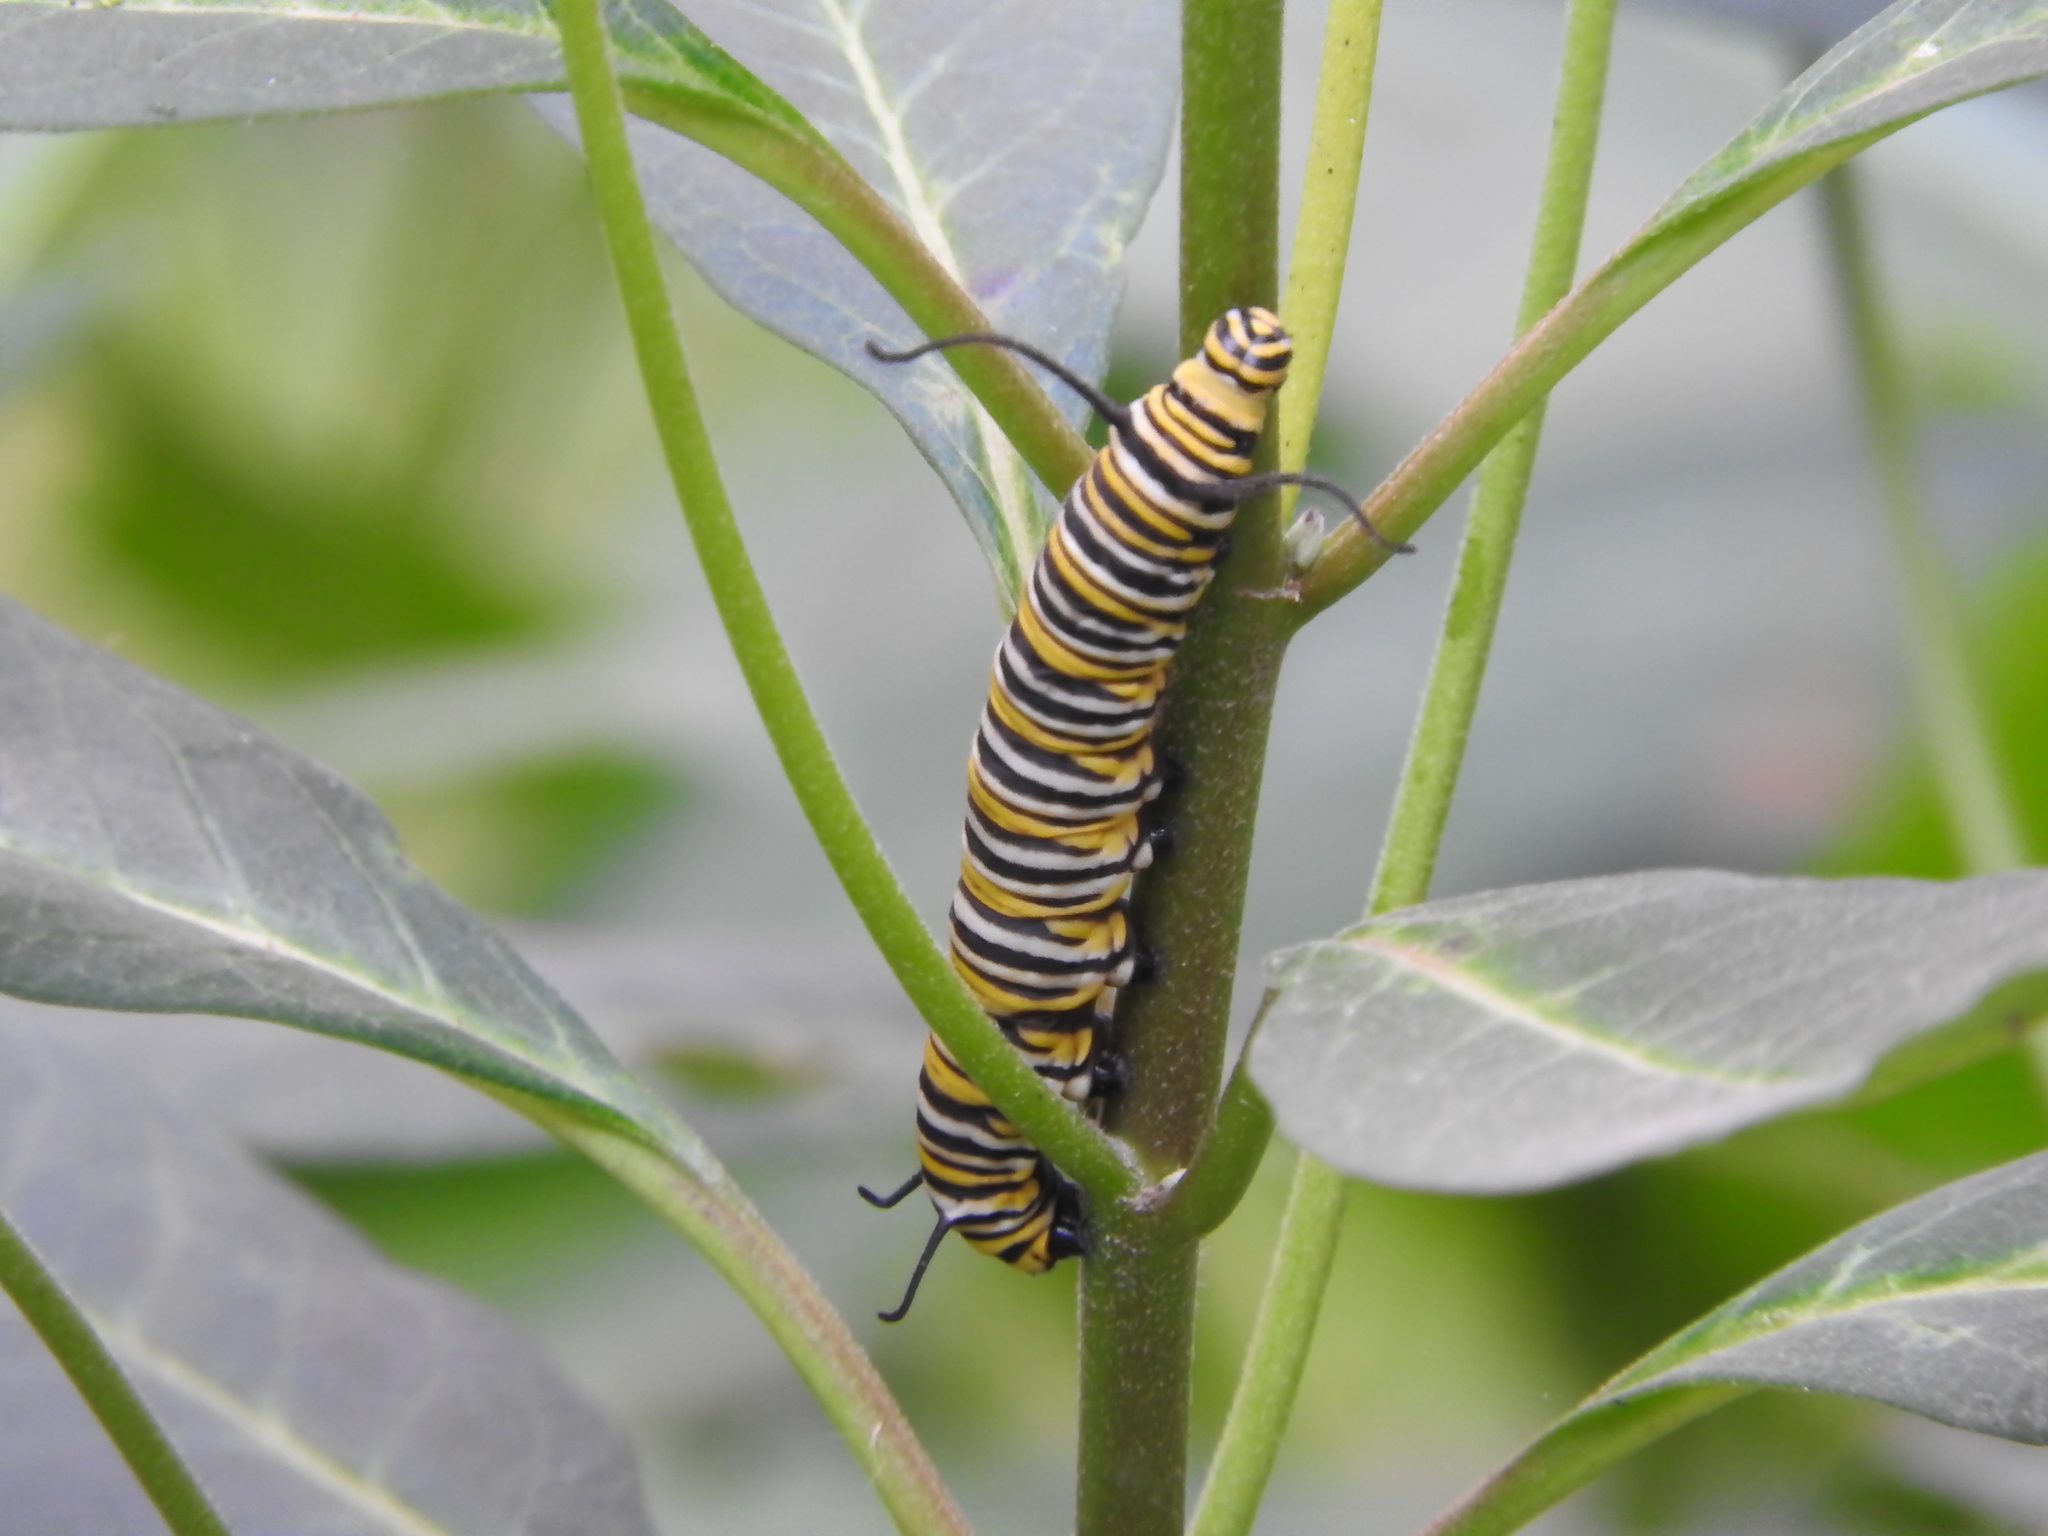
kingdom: Animalia
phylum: Arthropoda
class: Insecta
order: Lepidoptera
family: Nymphalidae
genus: Danaus
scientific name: Danaus plexippus
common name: Monarch
